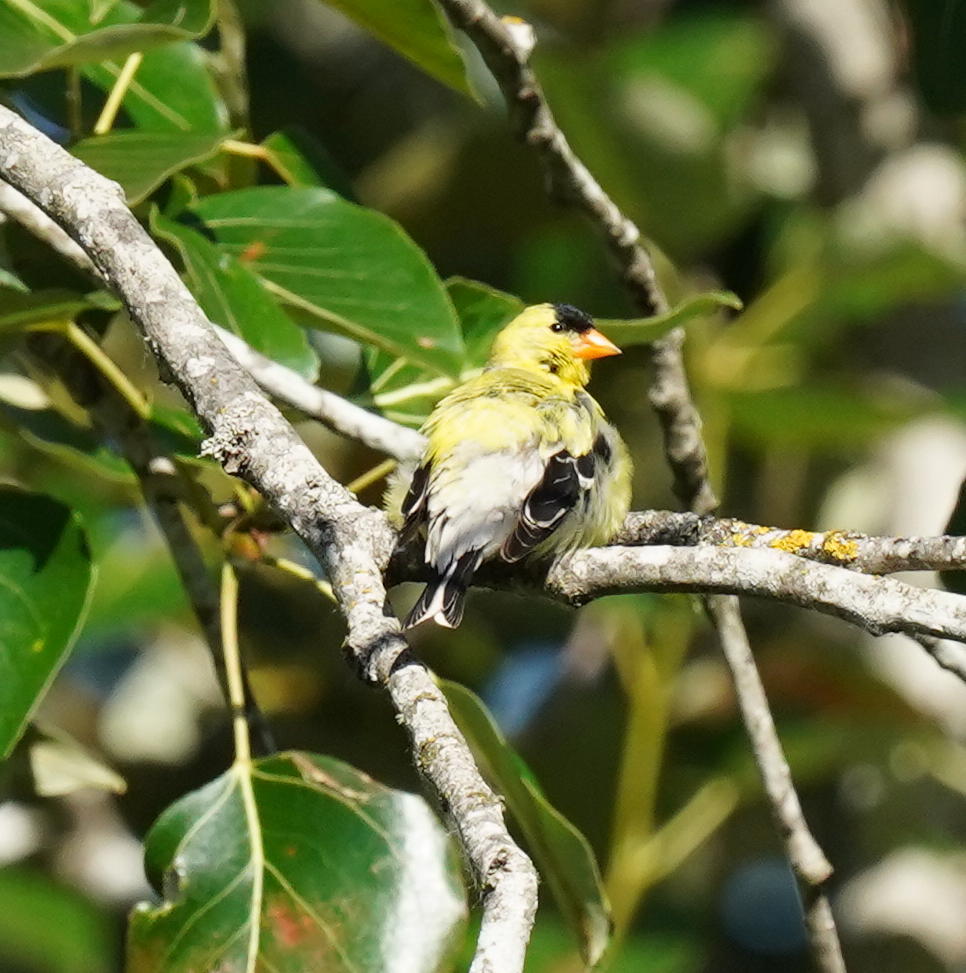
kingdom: Animalia
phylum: Chordata
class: Aves
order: Passeriformes
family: Fringillidae
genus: Spinus
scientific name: Spinus tristis
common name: American goldfinch
